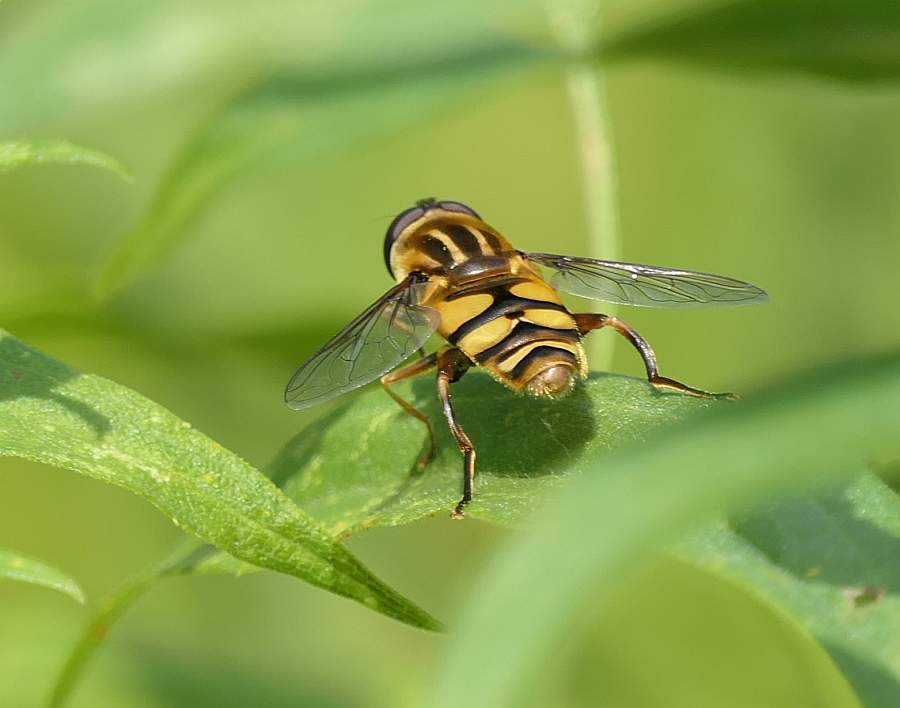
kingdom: Animalia
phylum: Arthropoda
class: Insecta
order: Diptera
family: Syrphidae
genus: Helophilus
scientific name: Helophilus fasciatus
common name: Narrow-headed marsh fly
